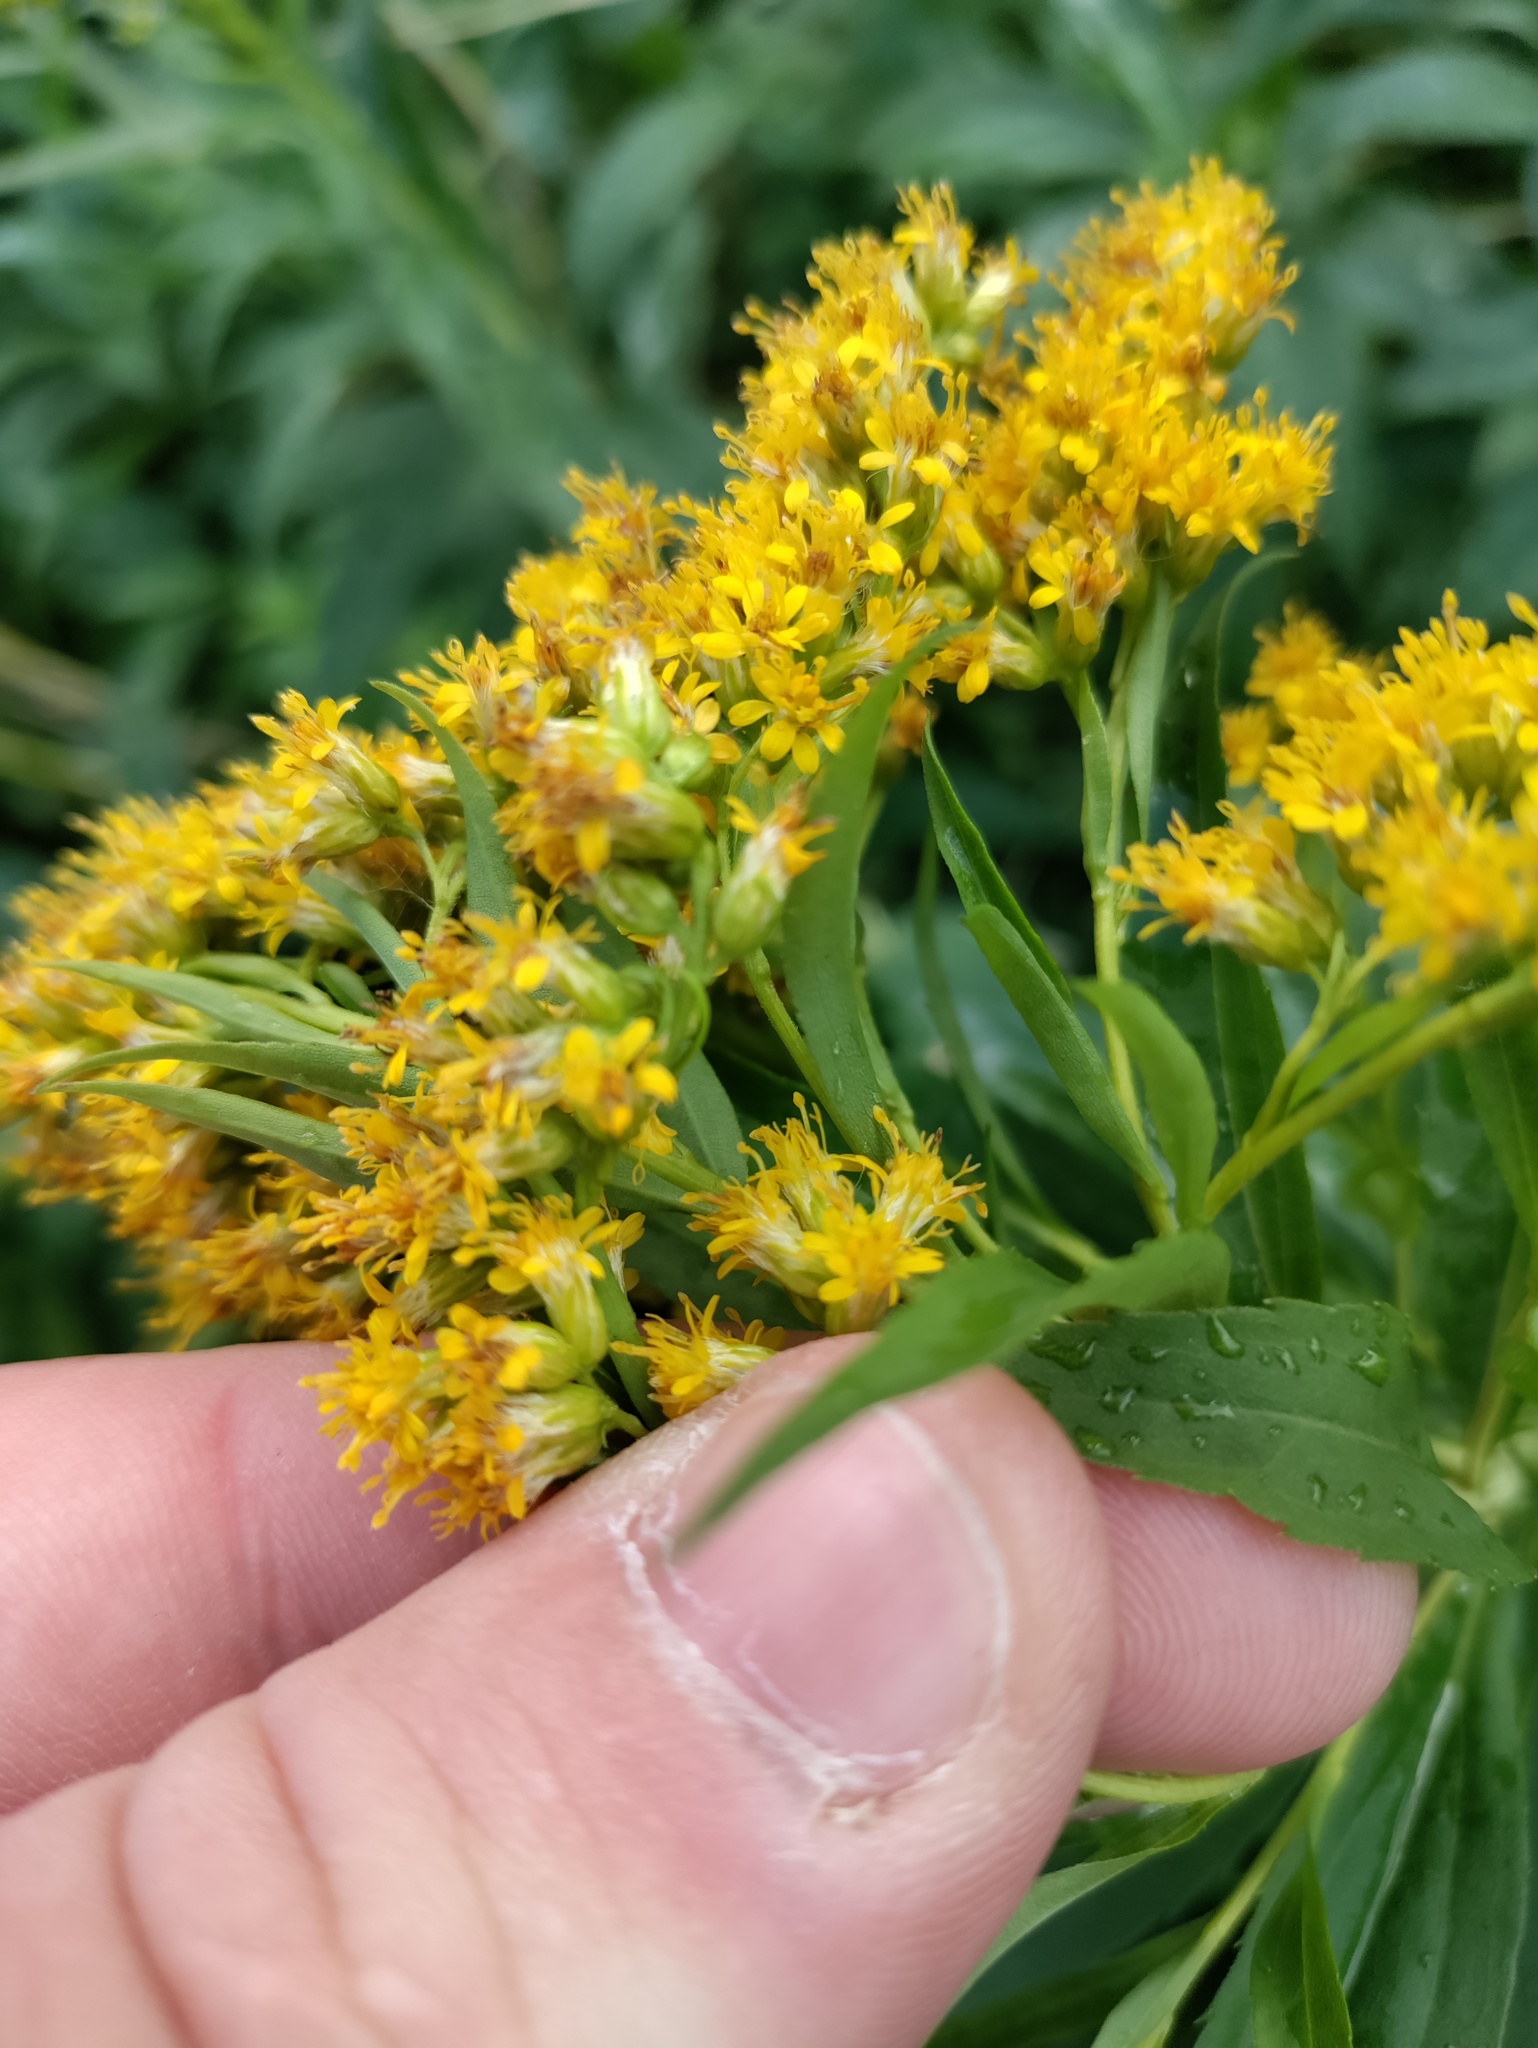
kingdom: Plantae
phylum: Tracheophyta
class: Magnoliopsida
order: Asterales
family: Asteraceae
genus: Solidago
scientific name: Solidago canadensis
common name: Canada goldenrod
